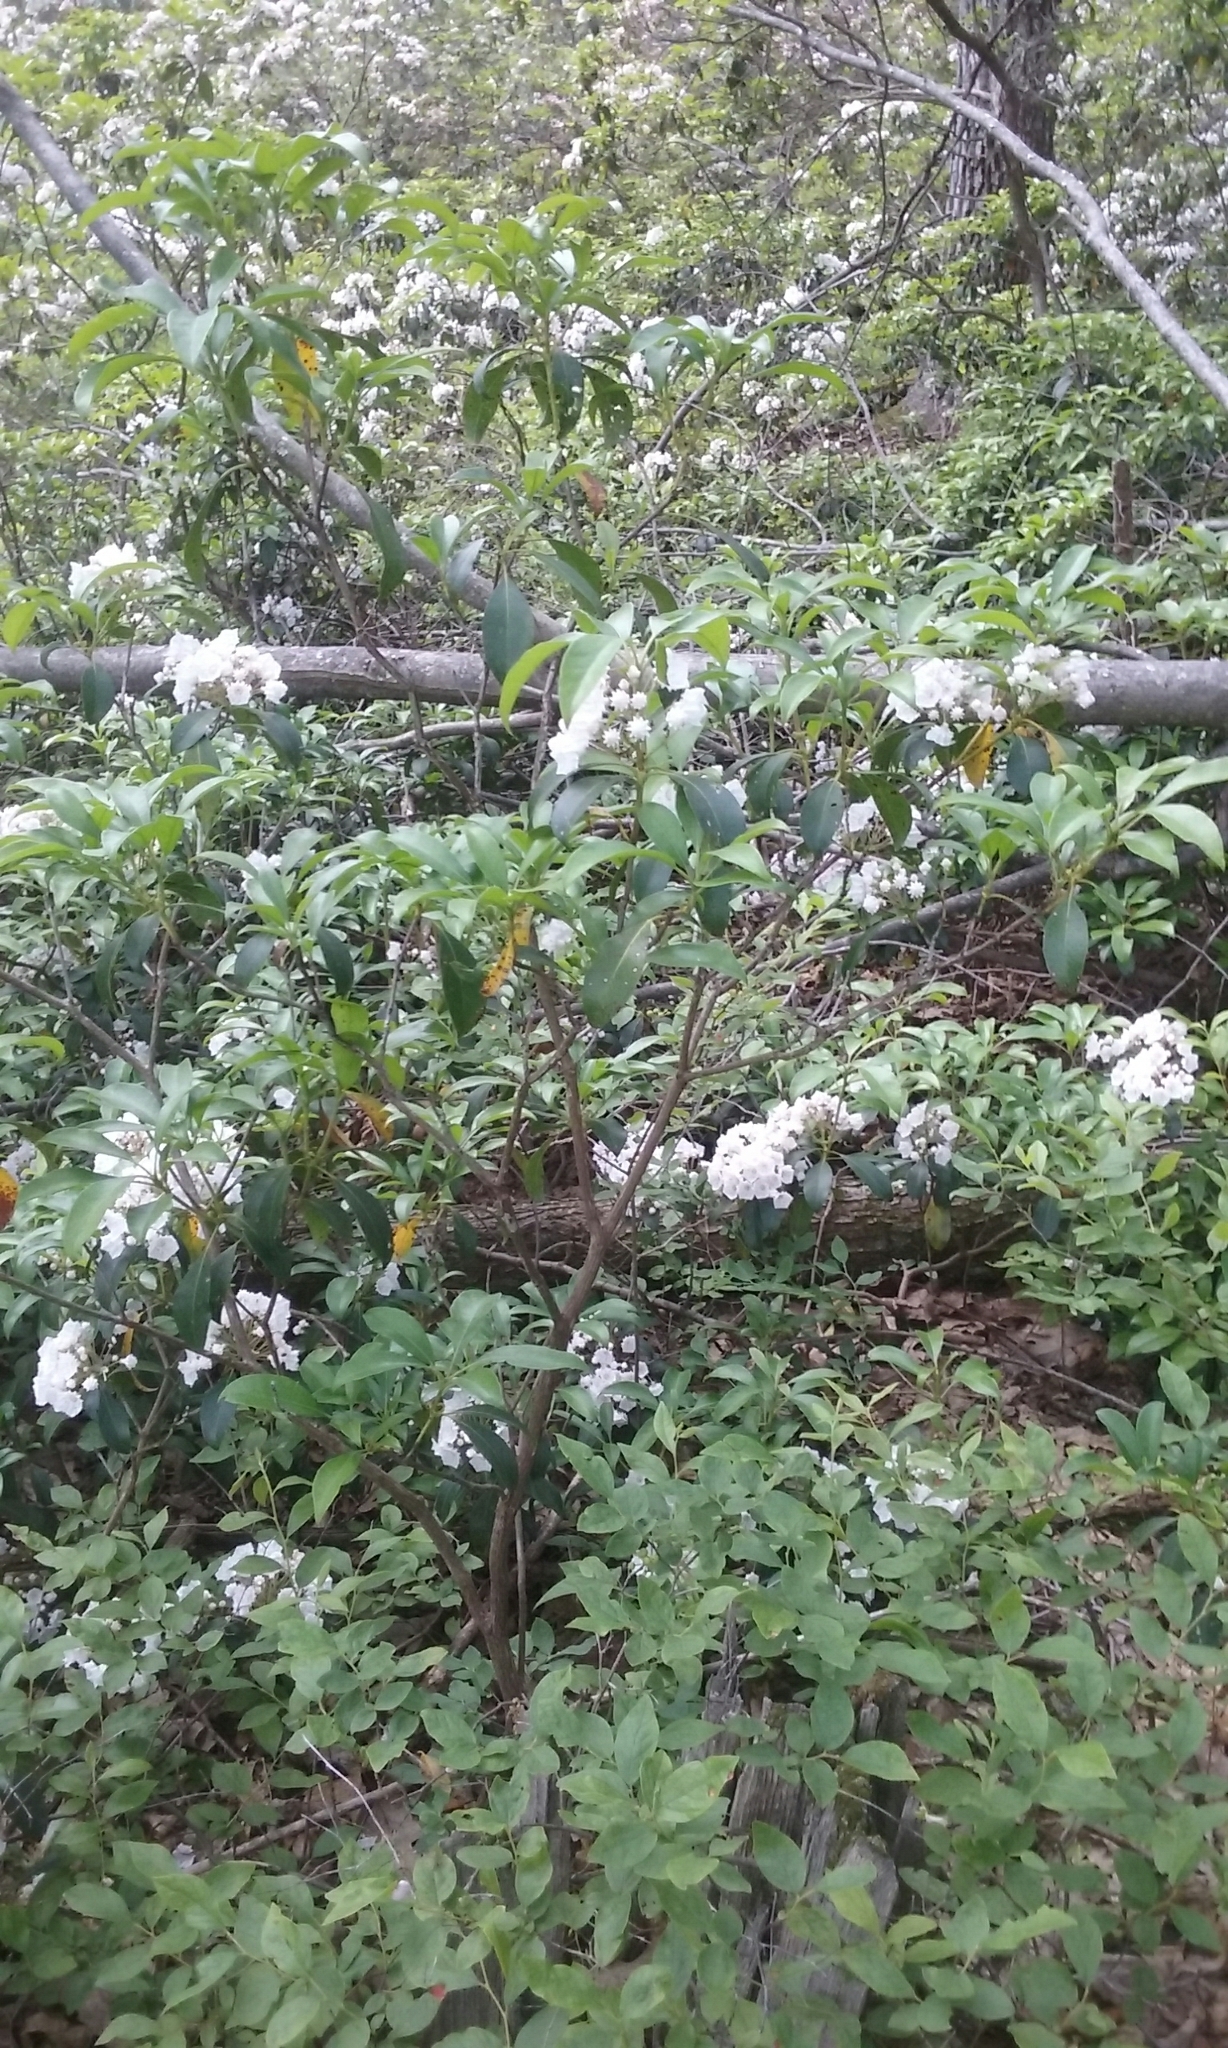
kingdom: Plantae
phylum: Tracheophyta
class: Magnoliopsida
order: Ericales
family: Ericaceae
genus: Kalmia
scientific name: Kalmia latifolia
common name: Mountain-laurel
